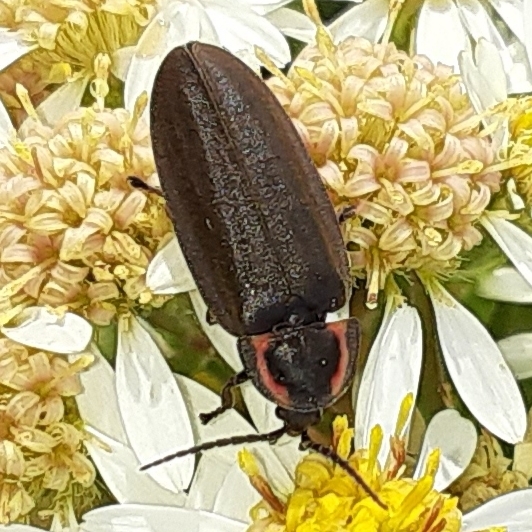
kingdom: Animalia
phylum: Arthropoda
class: Insecta
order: Coleoptera
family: Lampyridae
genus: Photinus
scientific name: Photinus corrusca
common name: Winter firefly
